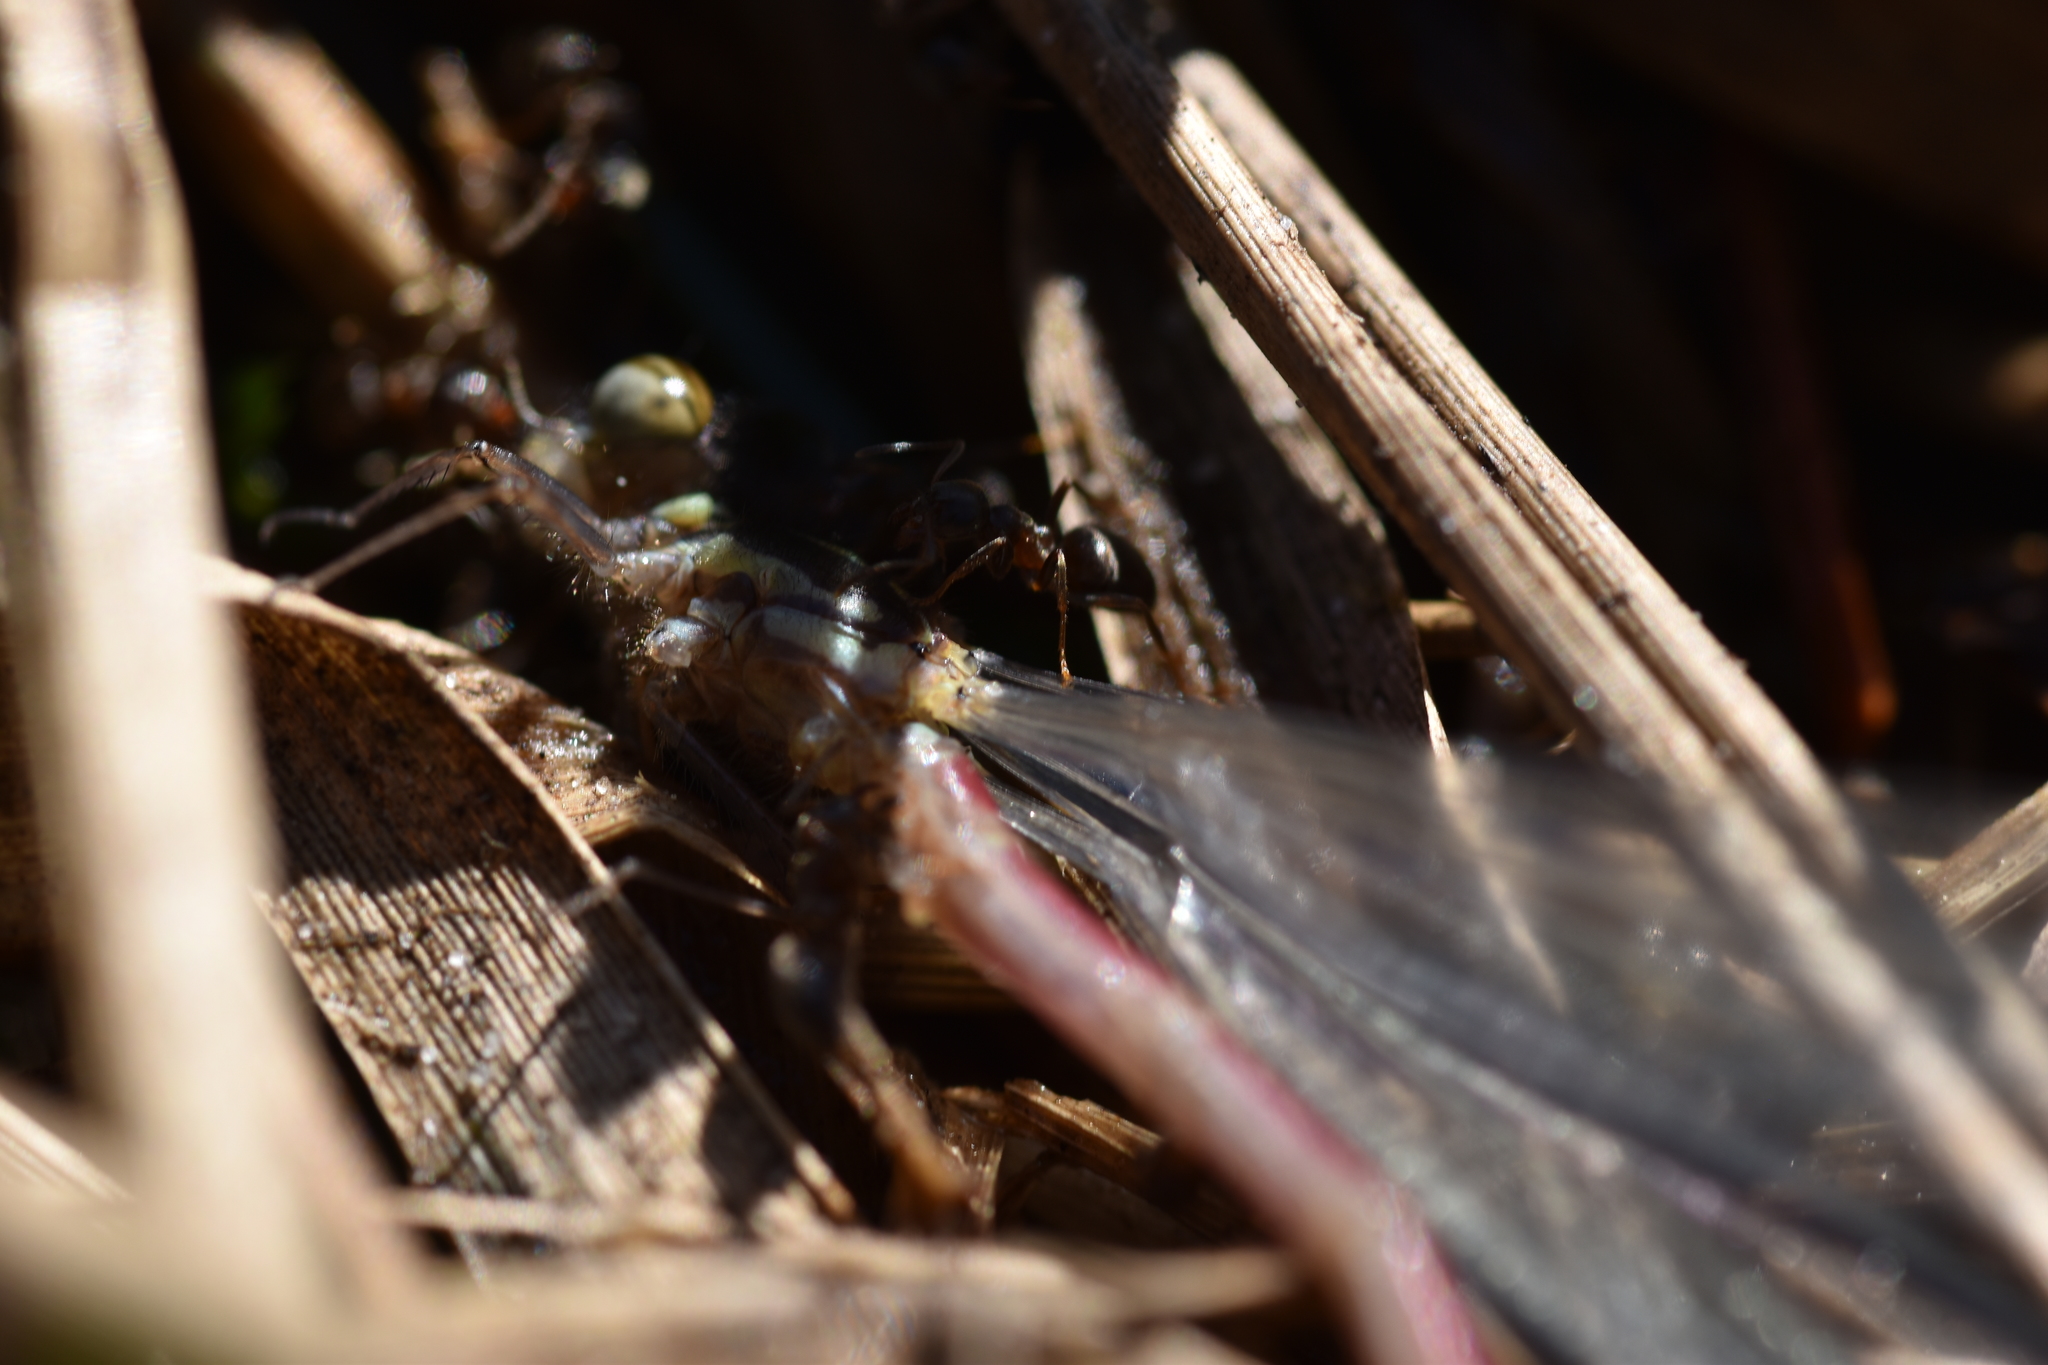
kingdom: Animalia
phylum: Arthropoda
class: Insecta
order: Odonata
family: Coenagrionidae
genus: Pyrrhosoma
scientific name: Pyrrhosoma nymphula
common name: Large red damsel
